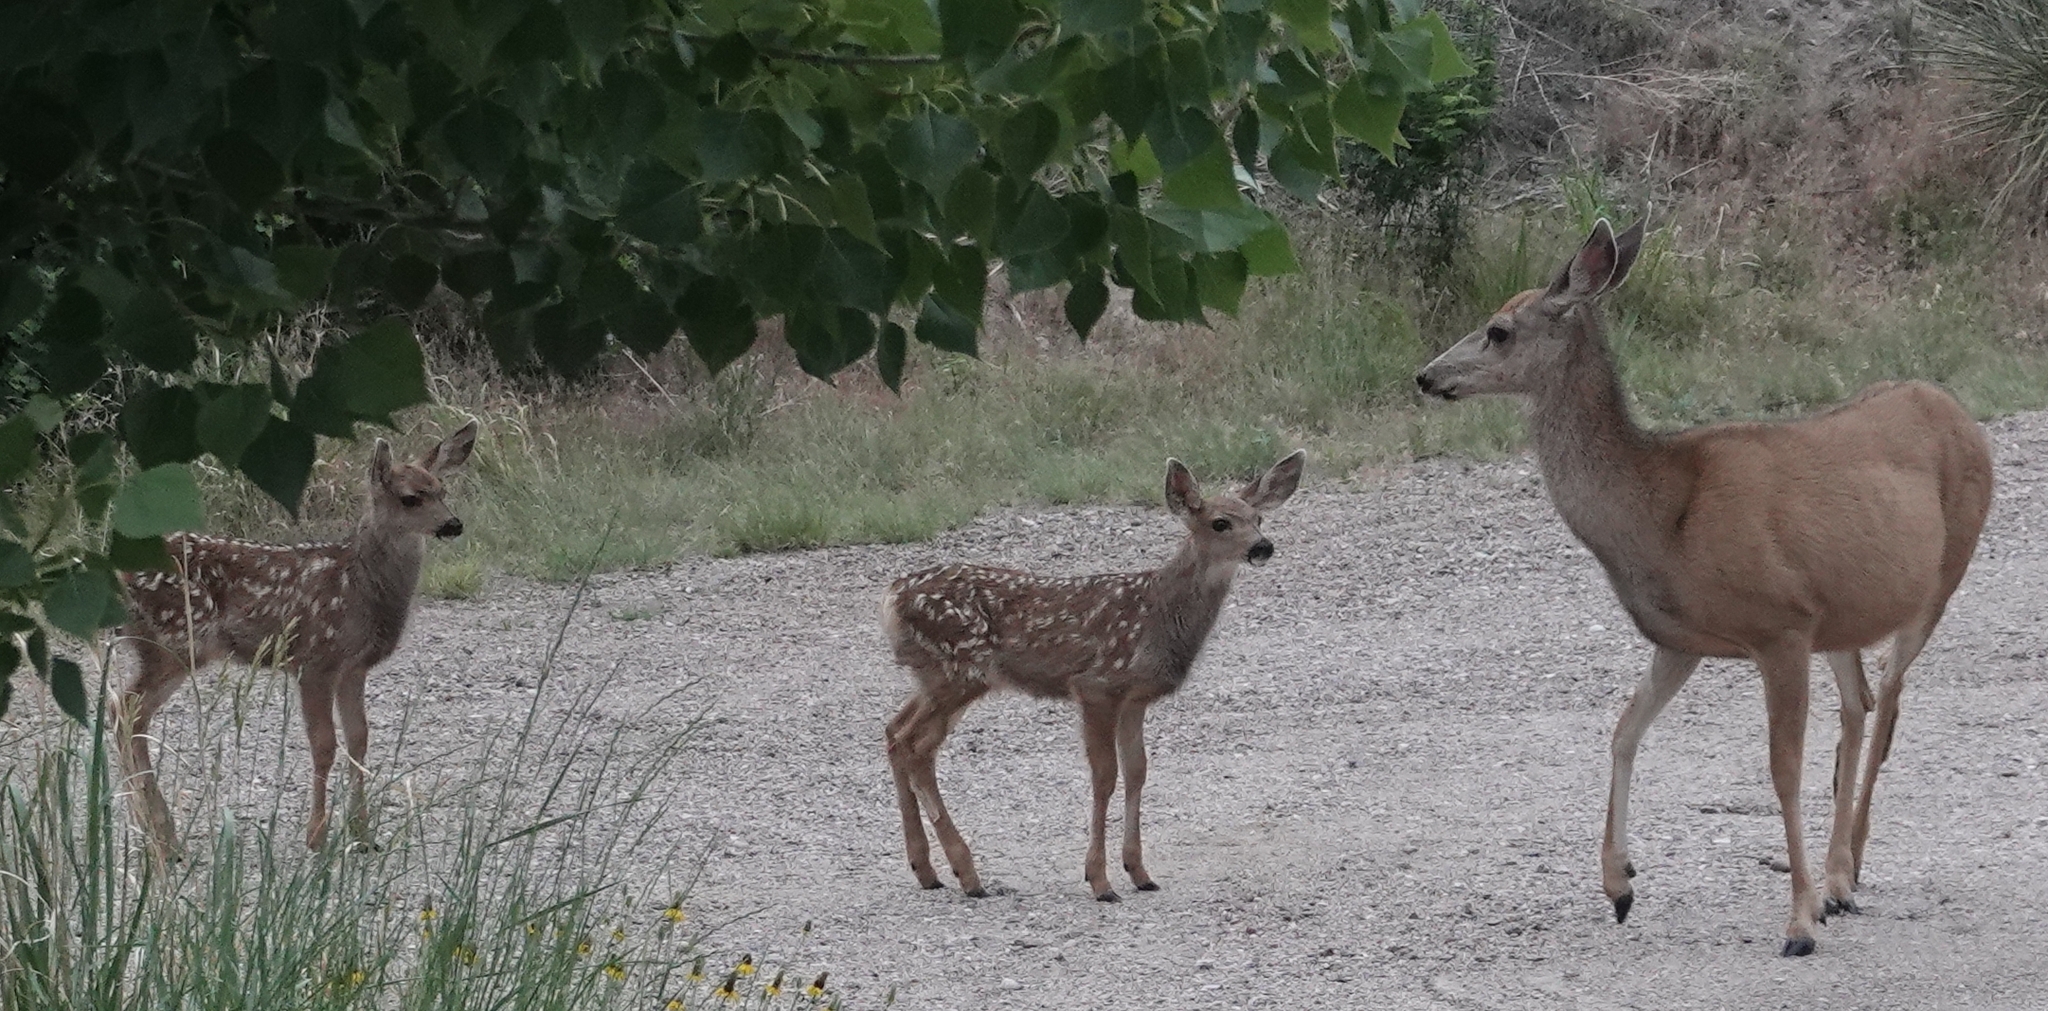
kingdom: Animalia
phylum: Chordata
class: Mammalia
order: Artiodactyla
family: Cervidae
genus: Odocoileus
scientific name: Odocoileus hemionus
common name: Mule deer
